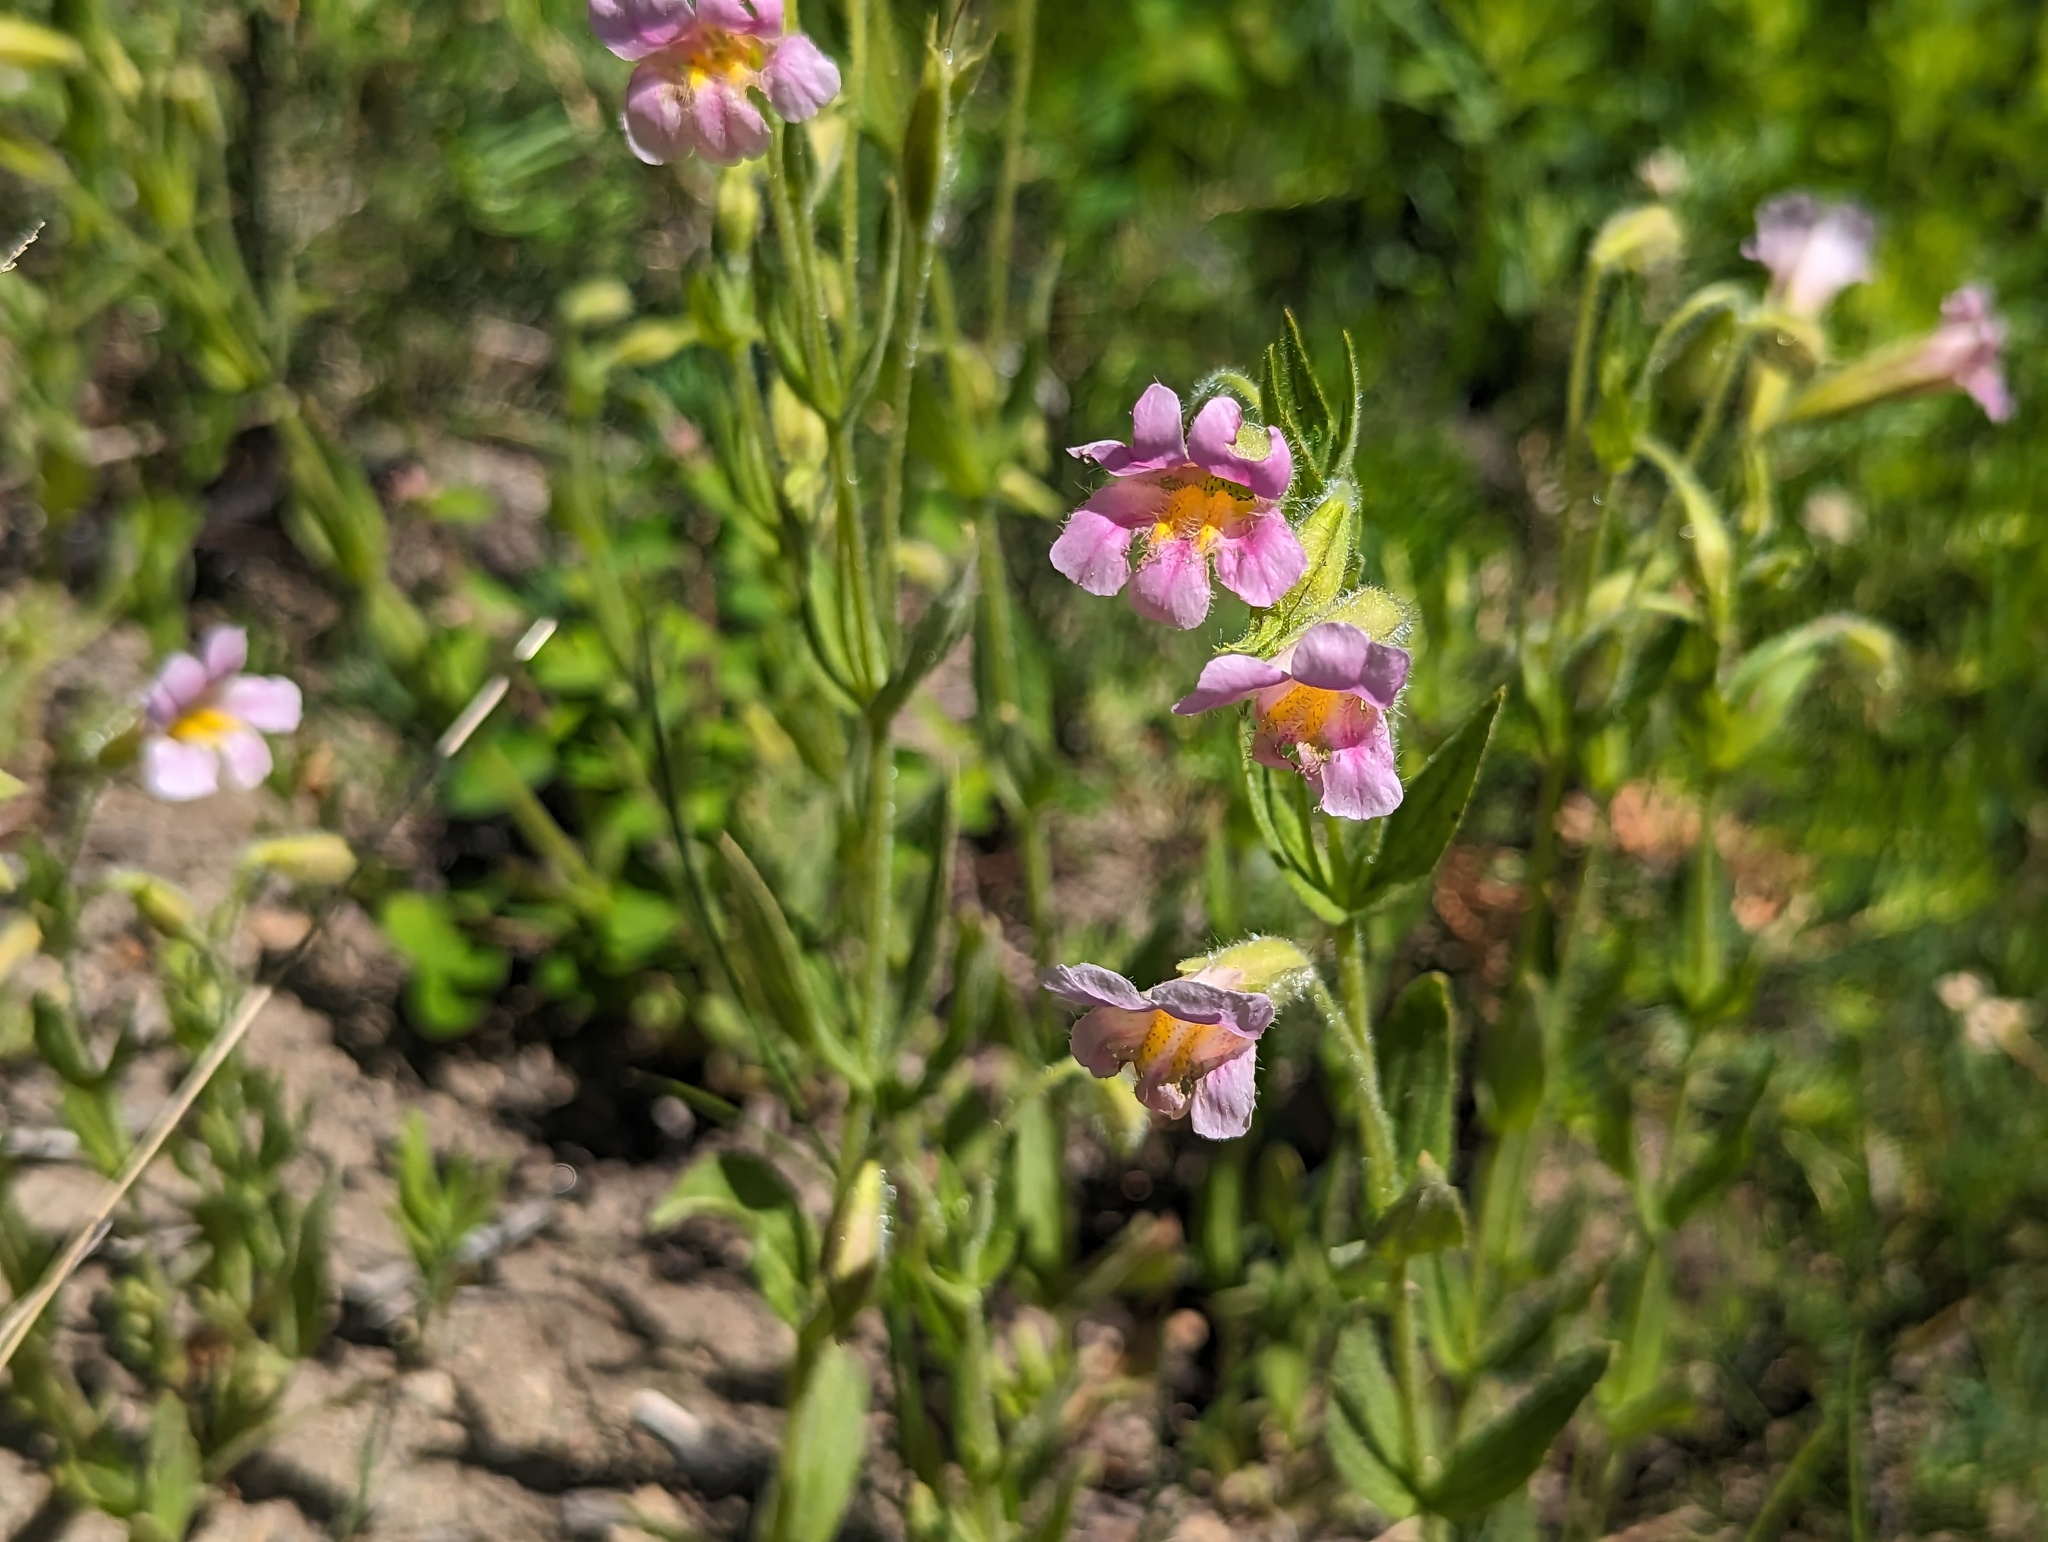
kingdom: Plantae
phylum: Tracheophyta
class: Magnoliopsida
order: Lamiales
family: Phrymaceae
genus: Erythranthe
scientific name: Erythranthe erubescens
